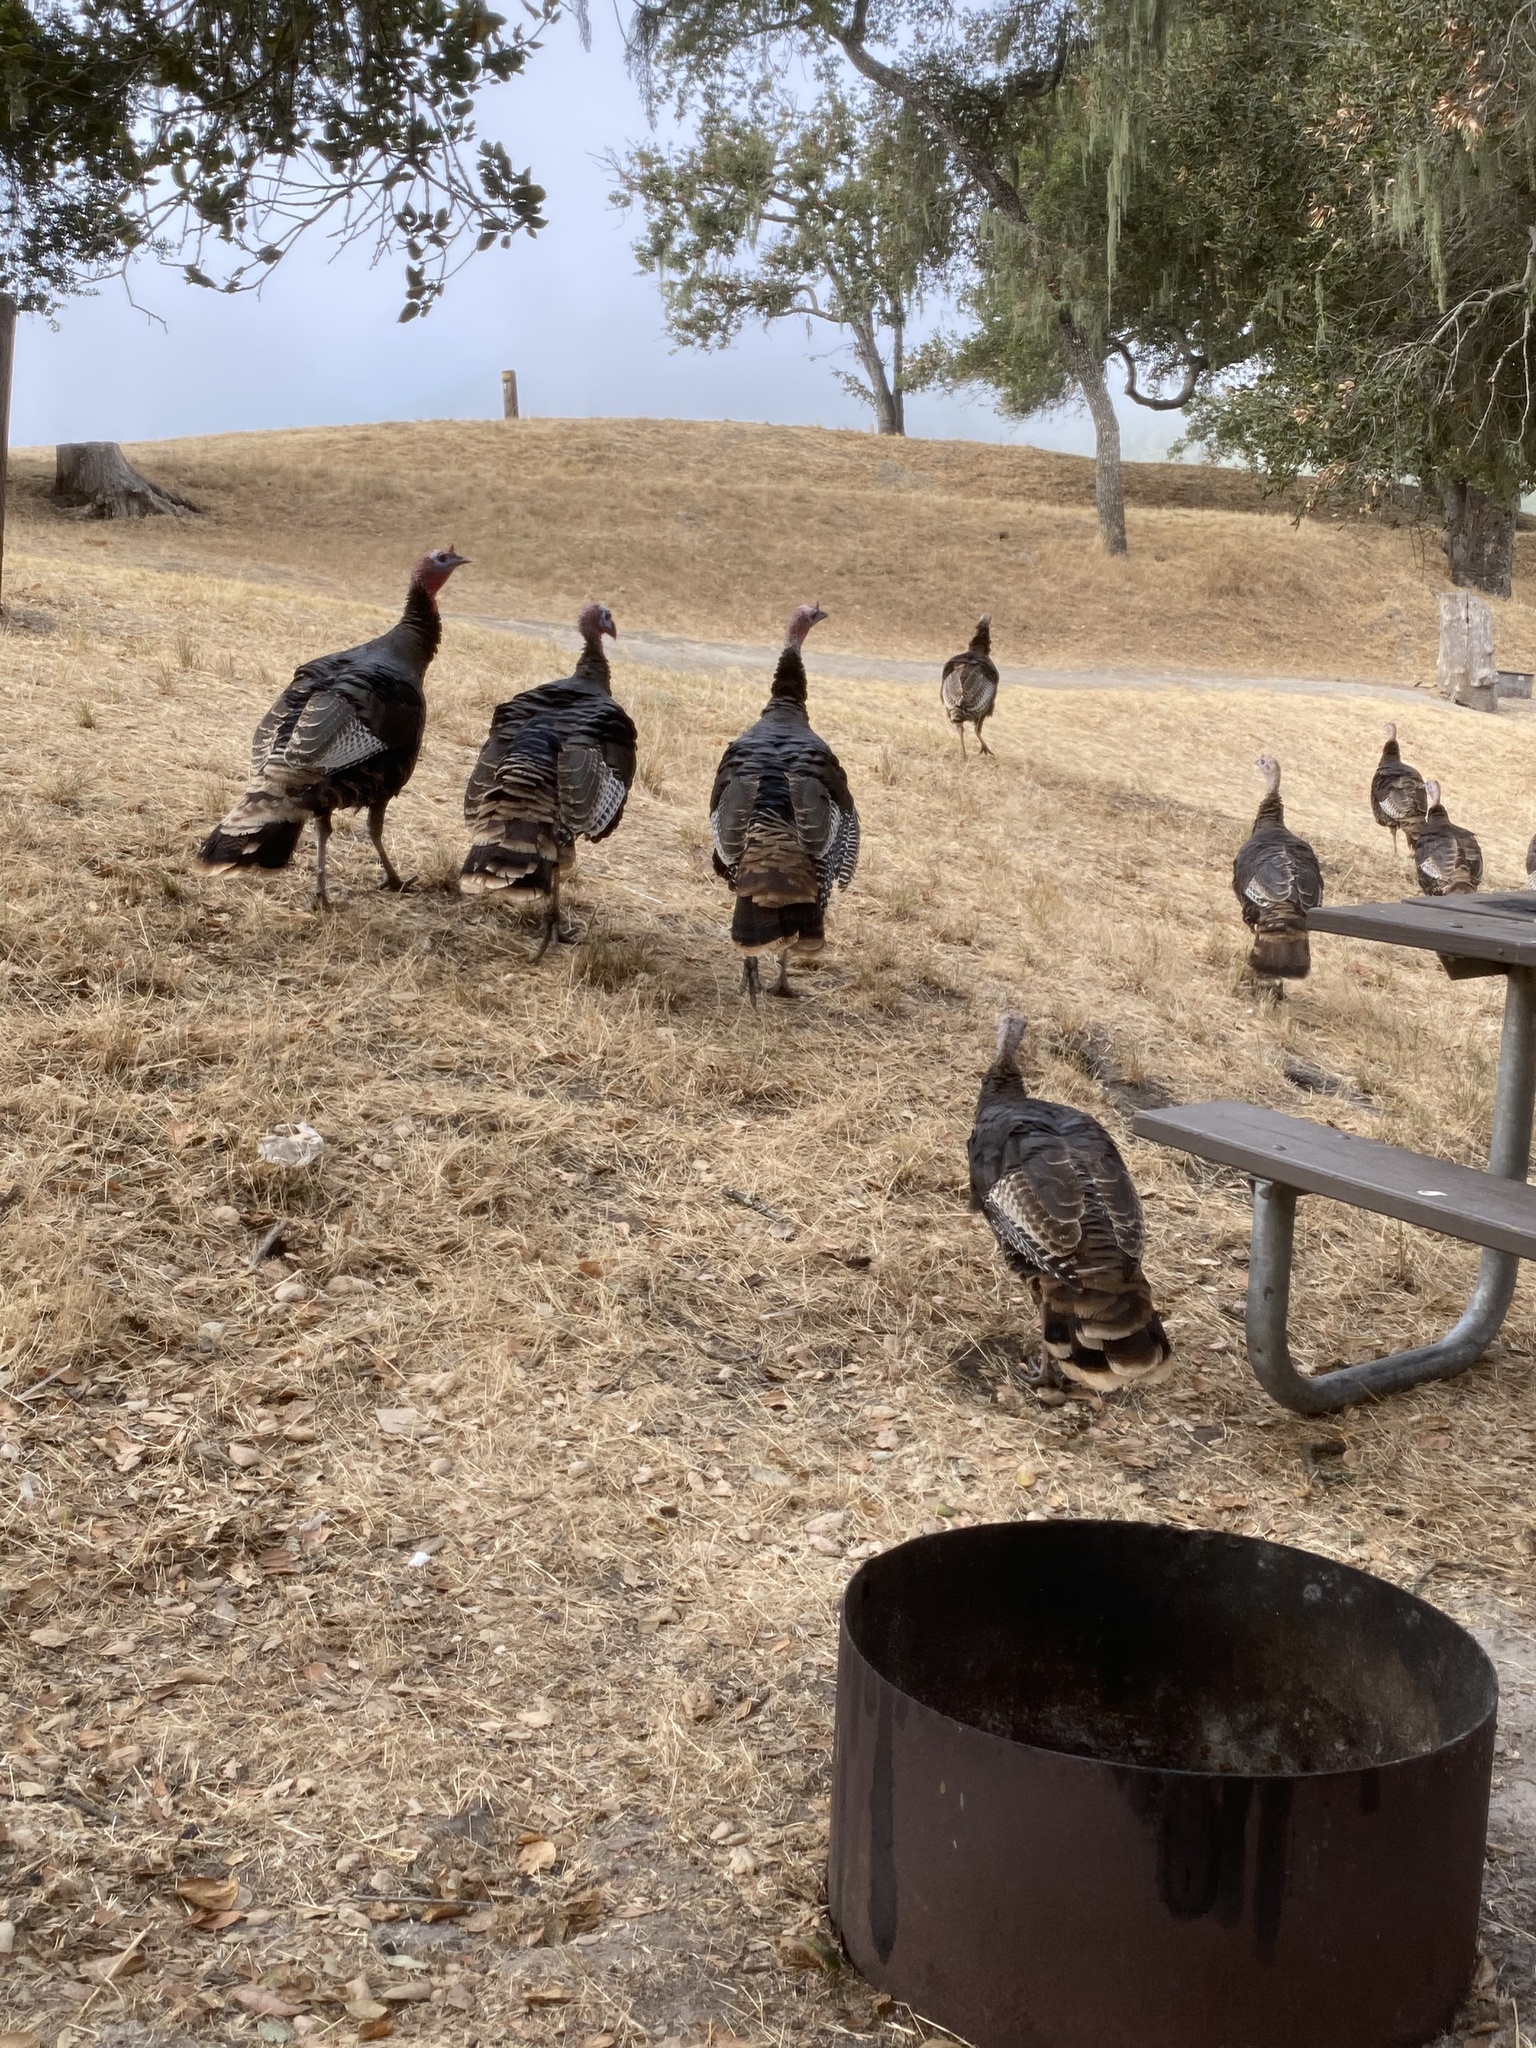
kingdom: Animalia
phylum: Chordata
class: Aves
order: Galliformes
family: Phasianidae
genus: Meleagris
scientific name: Meleagris gallopavo
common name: Wild turkey
